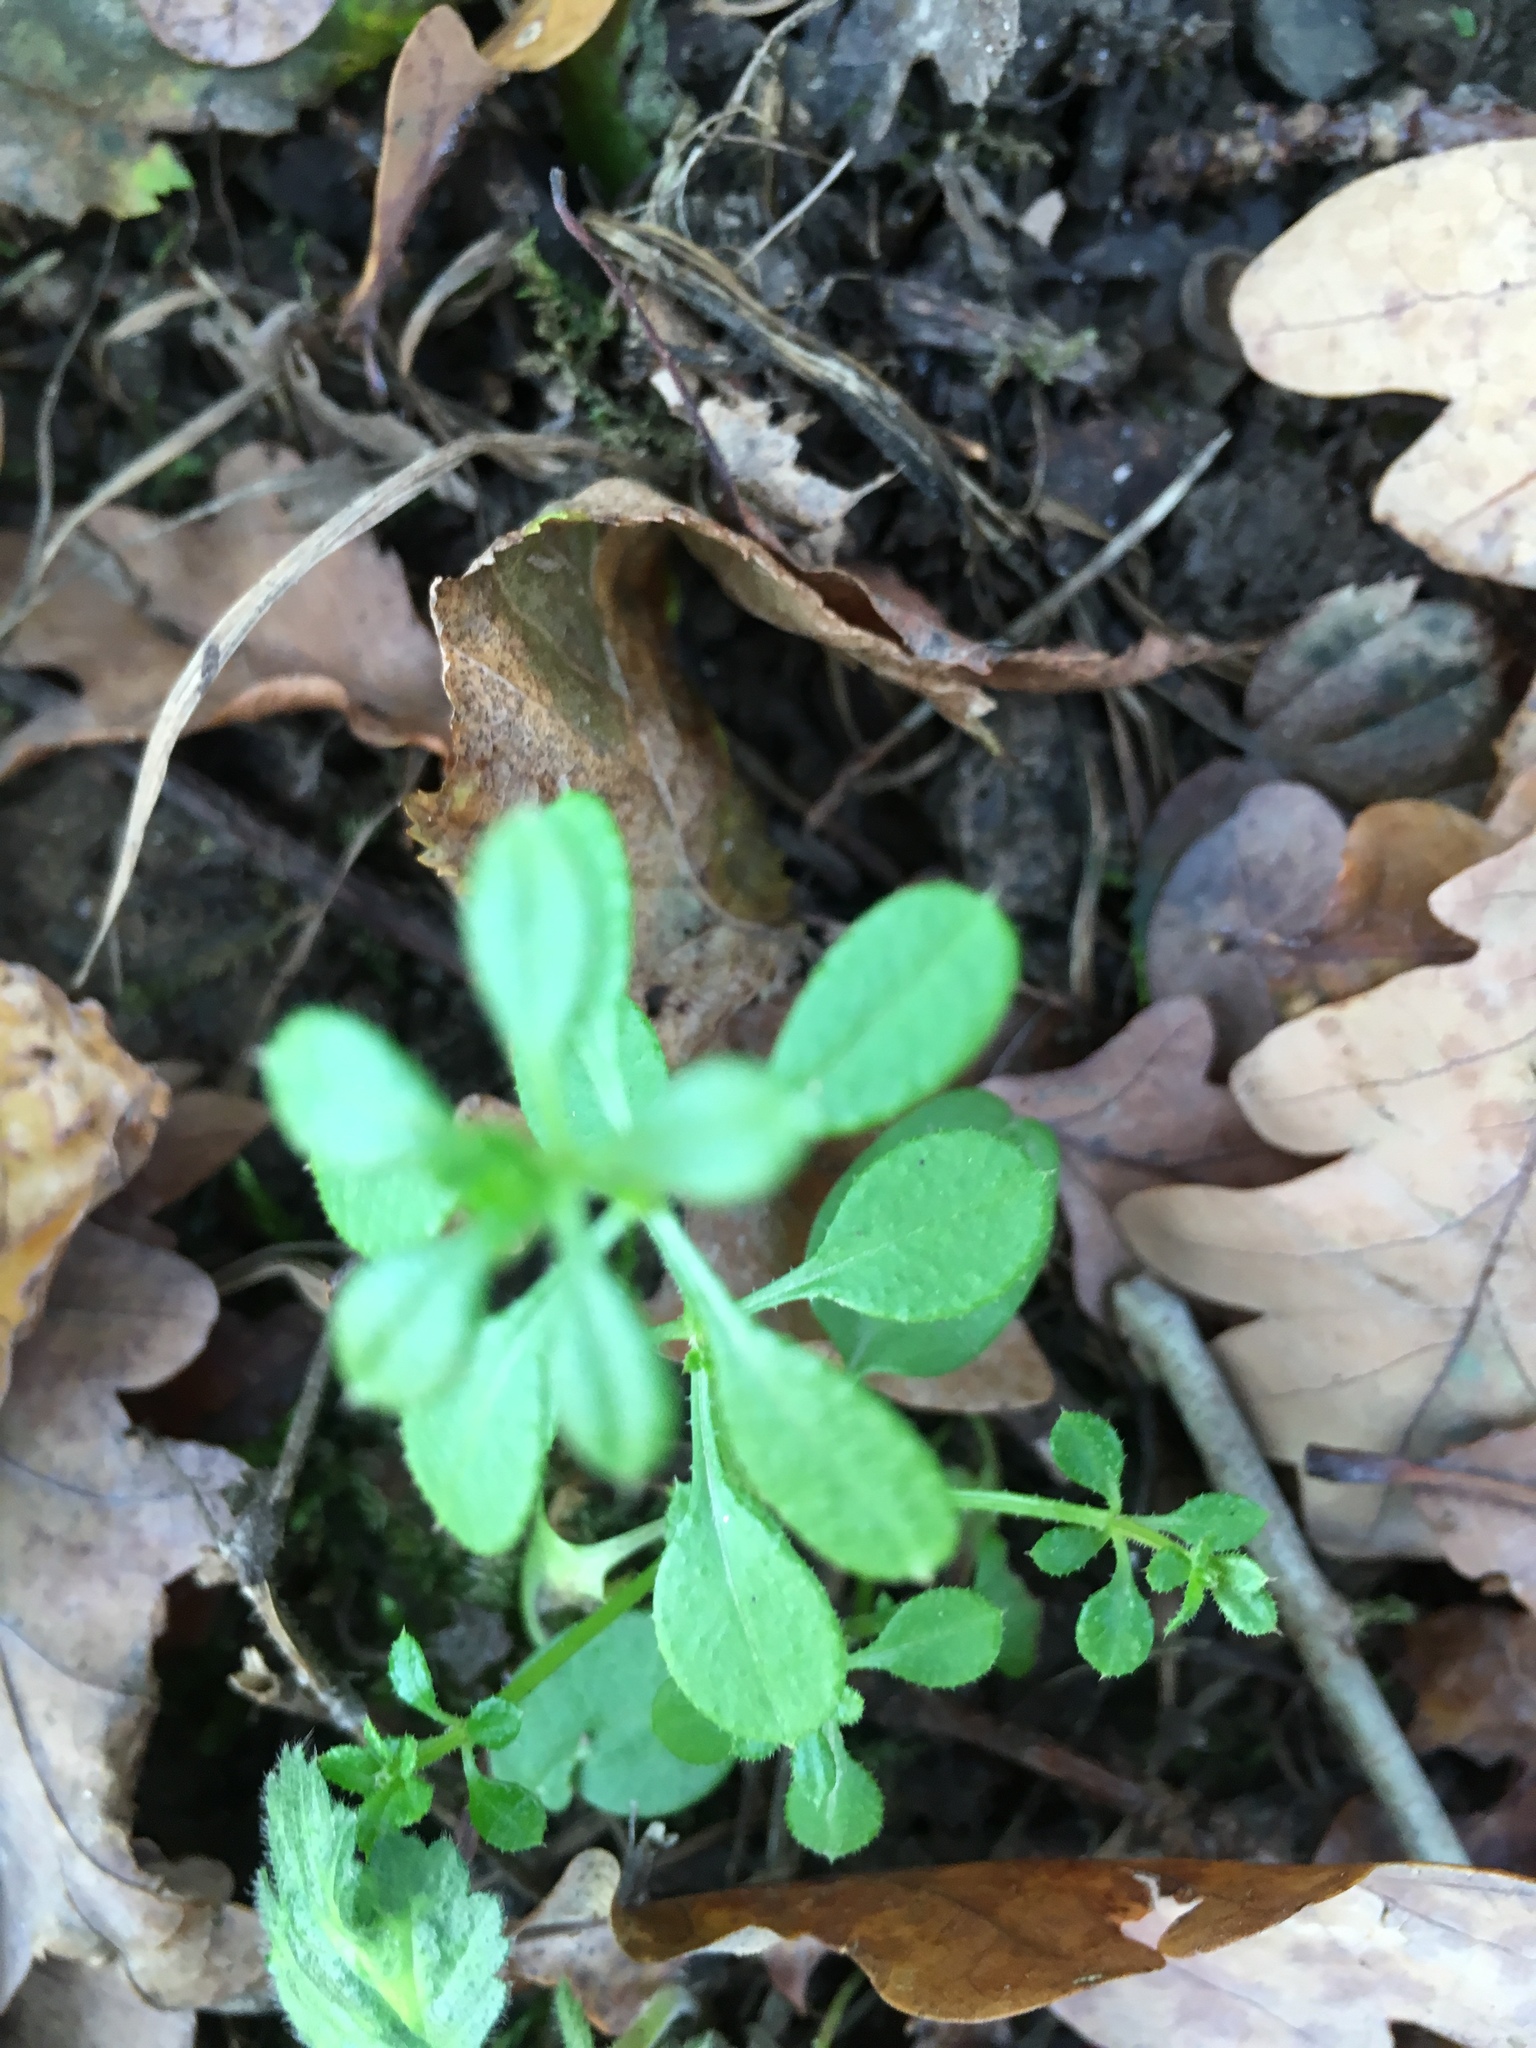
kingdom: Plantae
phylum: Tracheophyta
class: Magnoliopsida
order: Gentianales
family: Rubiaceae
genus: Galium
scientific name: Galium aparine
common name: Cleavers
